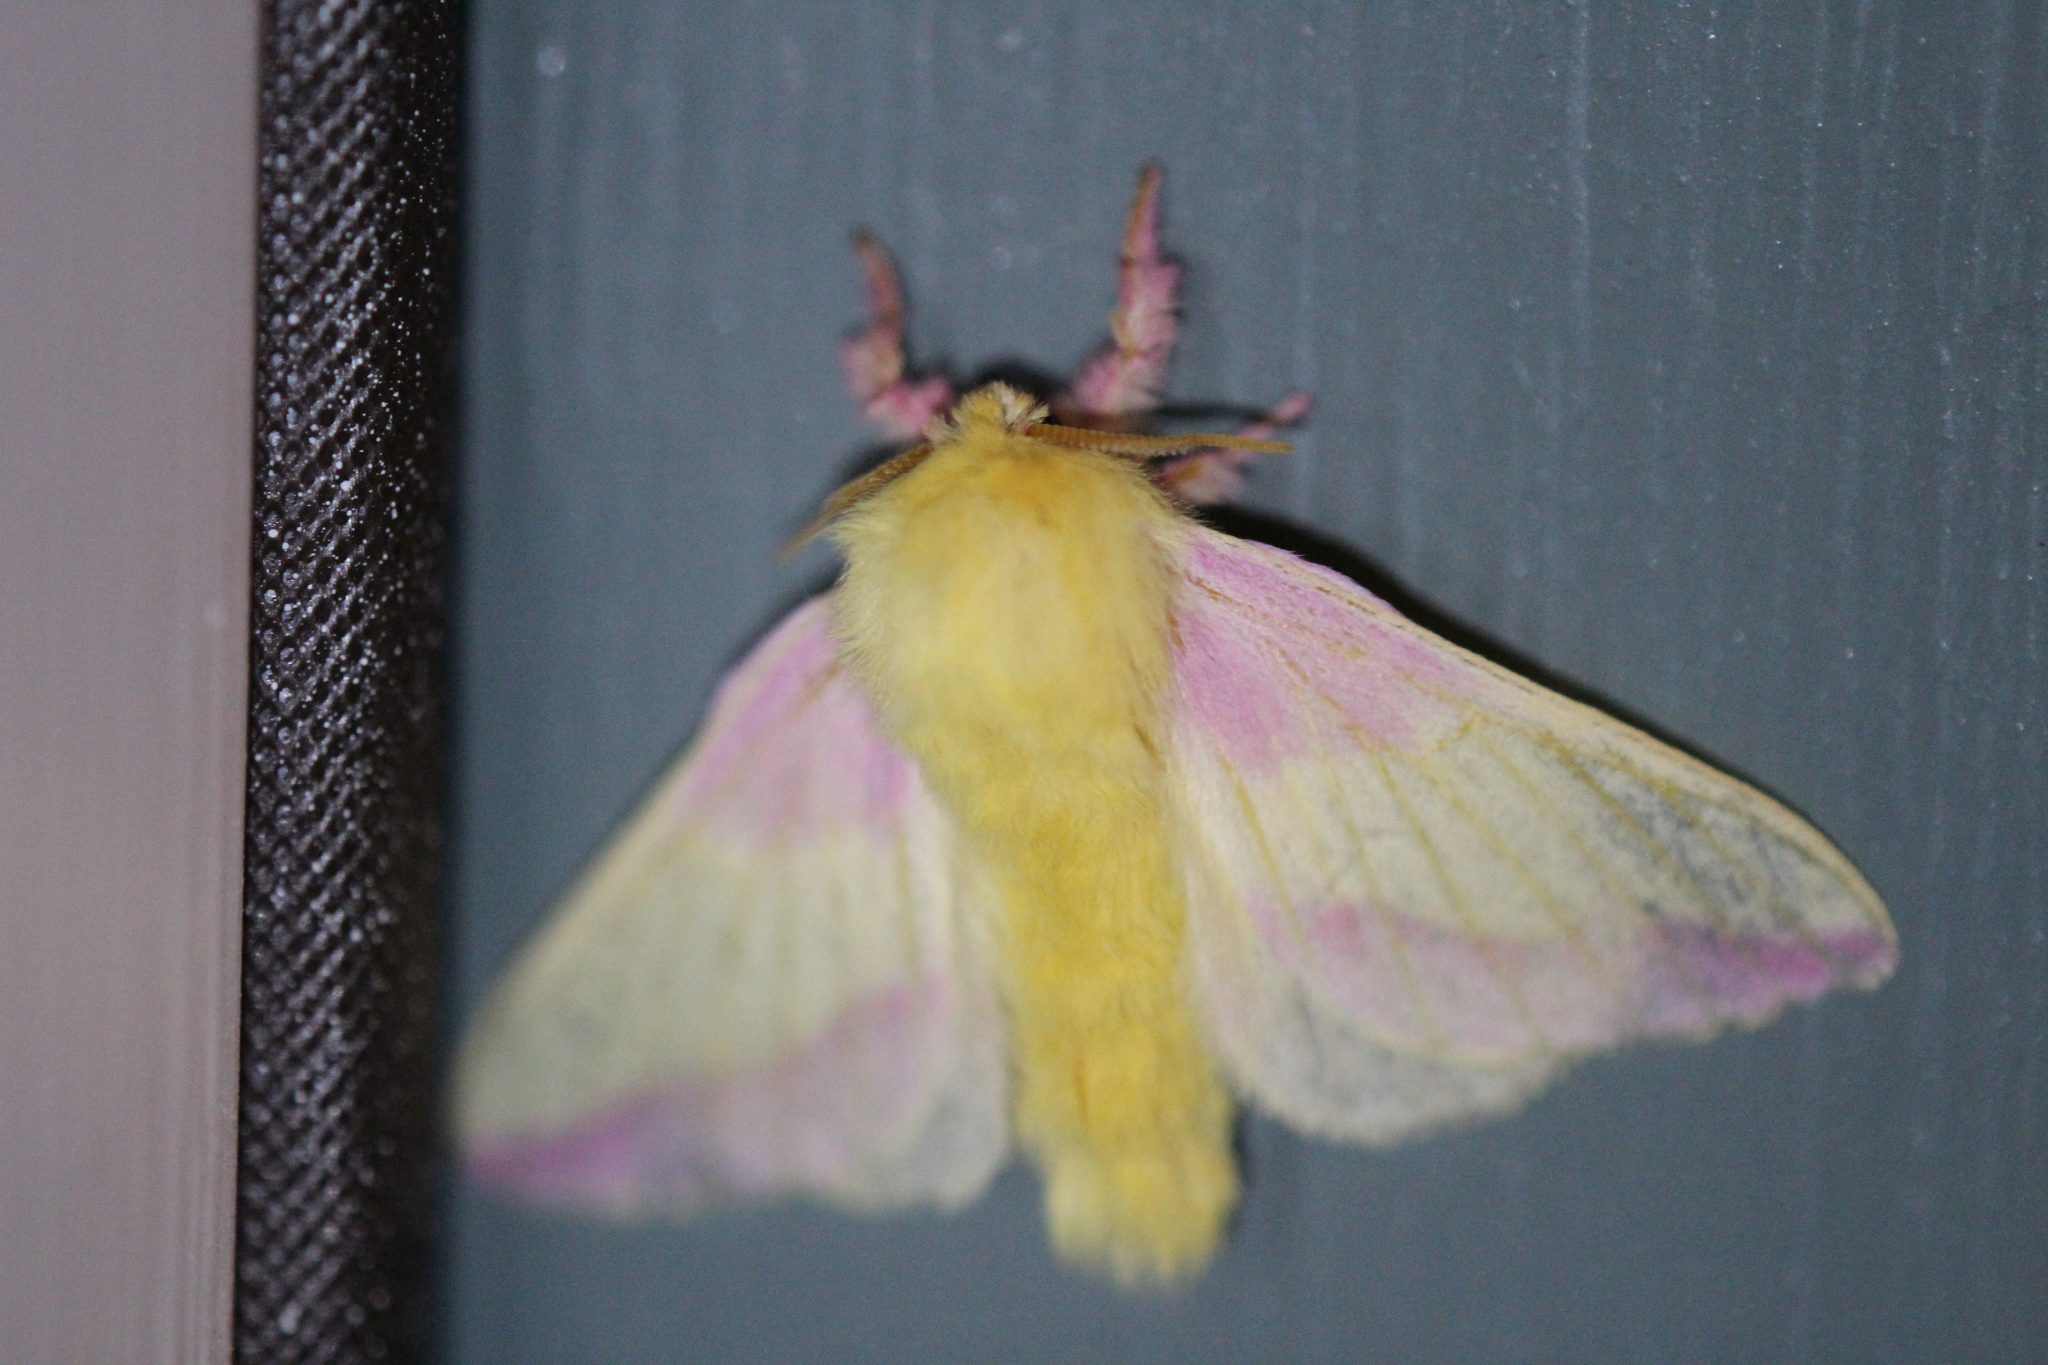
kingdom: Animalia
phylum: Arthropoda
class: Insecta
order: Lepidoptera
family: Saturniidae
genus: Dryocampa
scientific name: Dryocampa rubicunda
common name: Rosy maple moth
